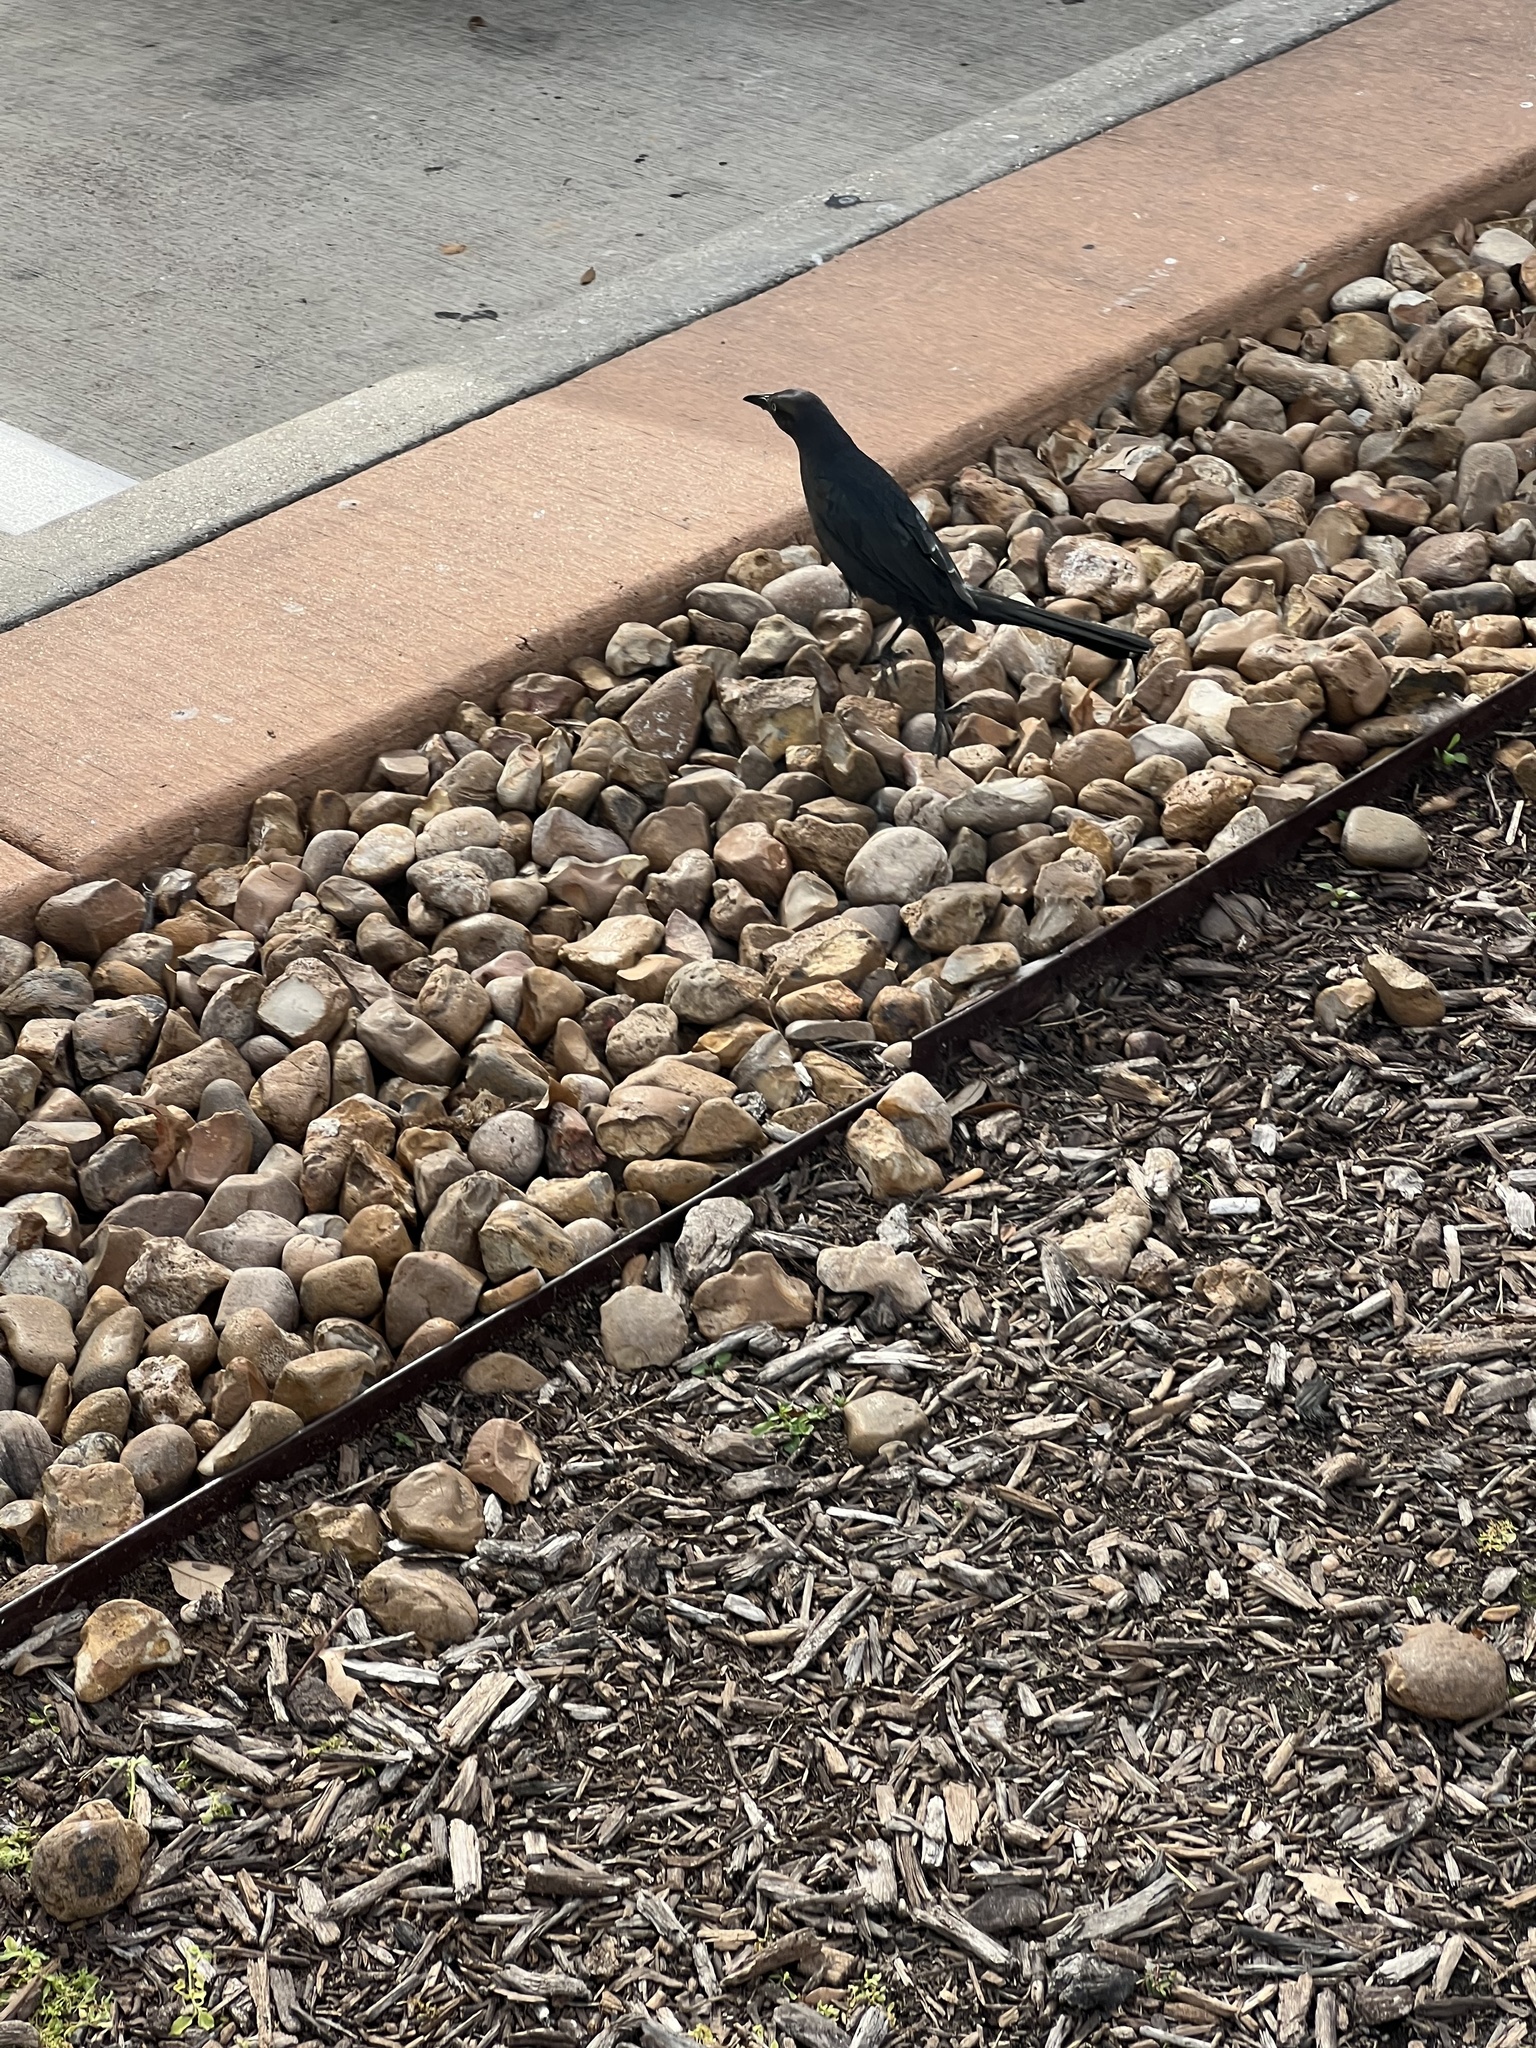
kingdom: Animalia
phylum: Chordata
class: Aves
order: Passeriformes
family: Icteridae
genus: Quiscalus
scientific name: Quiscalus mexicanus
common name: Great-tailed grackle
